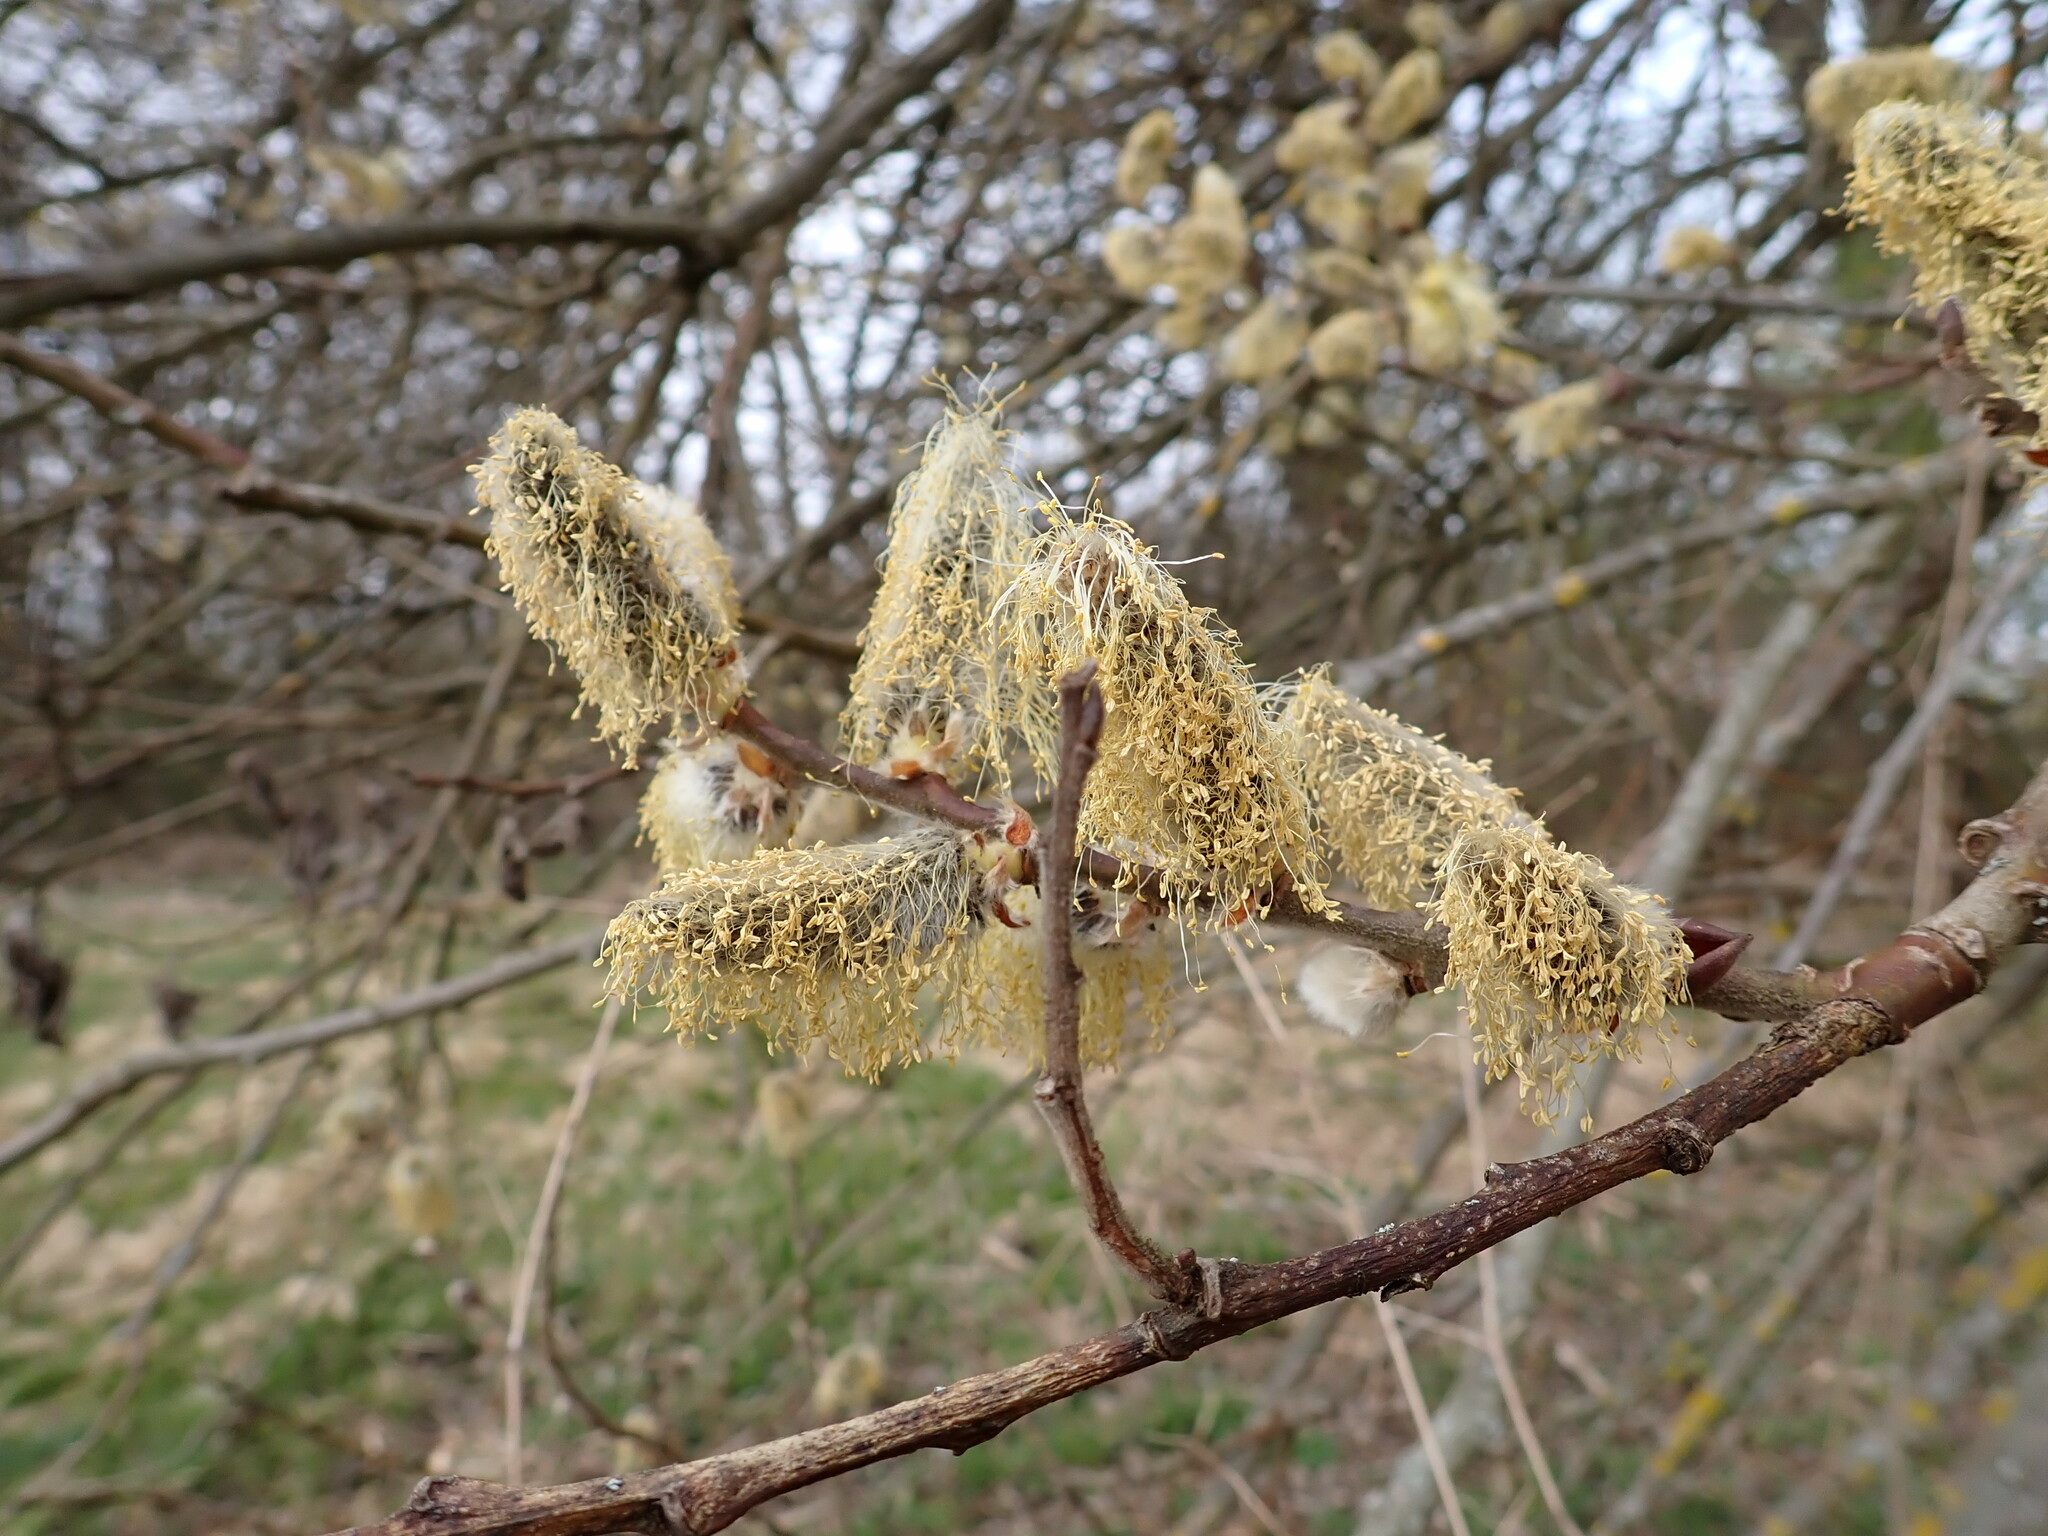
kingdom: Plantae
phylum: Tracheophyta
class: Magnoliopsida
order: Malpighiales
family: Salicaceae
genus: Salix
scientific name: Salix caprea
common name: Goat willow
